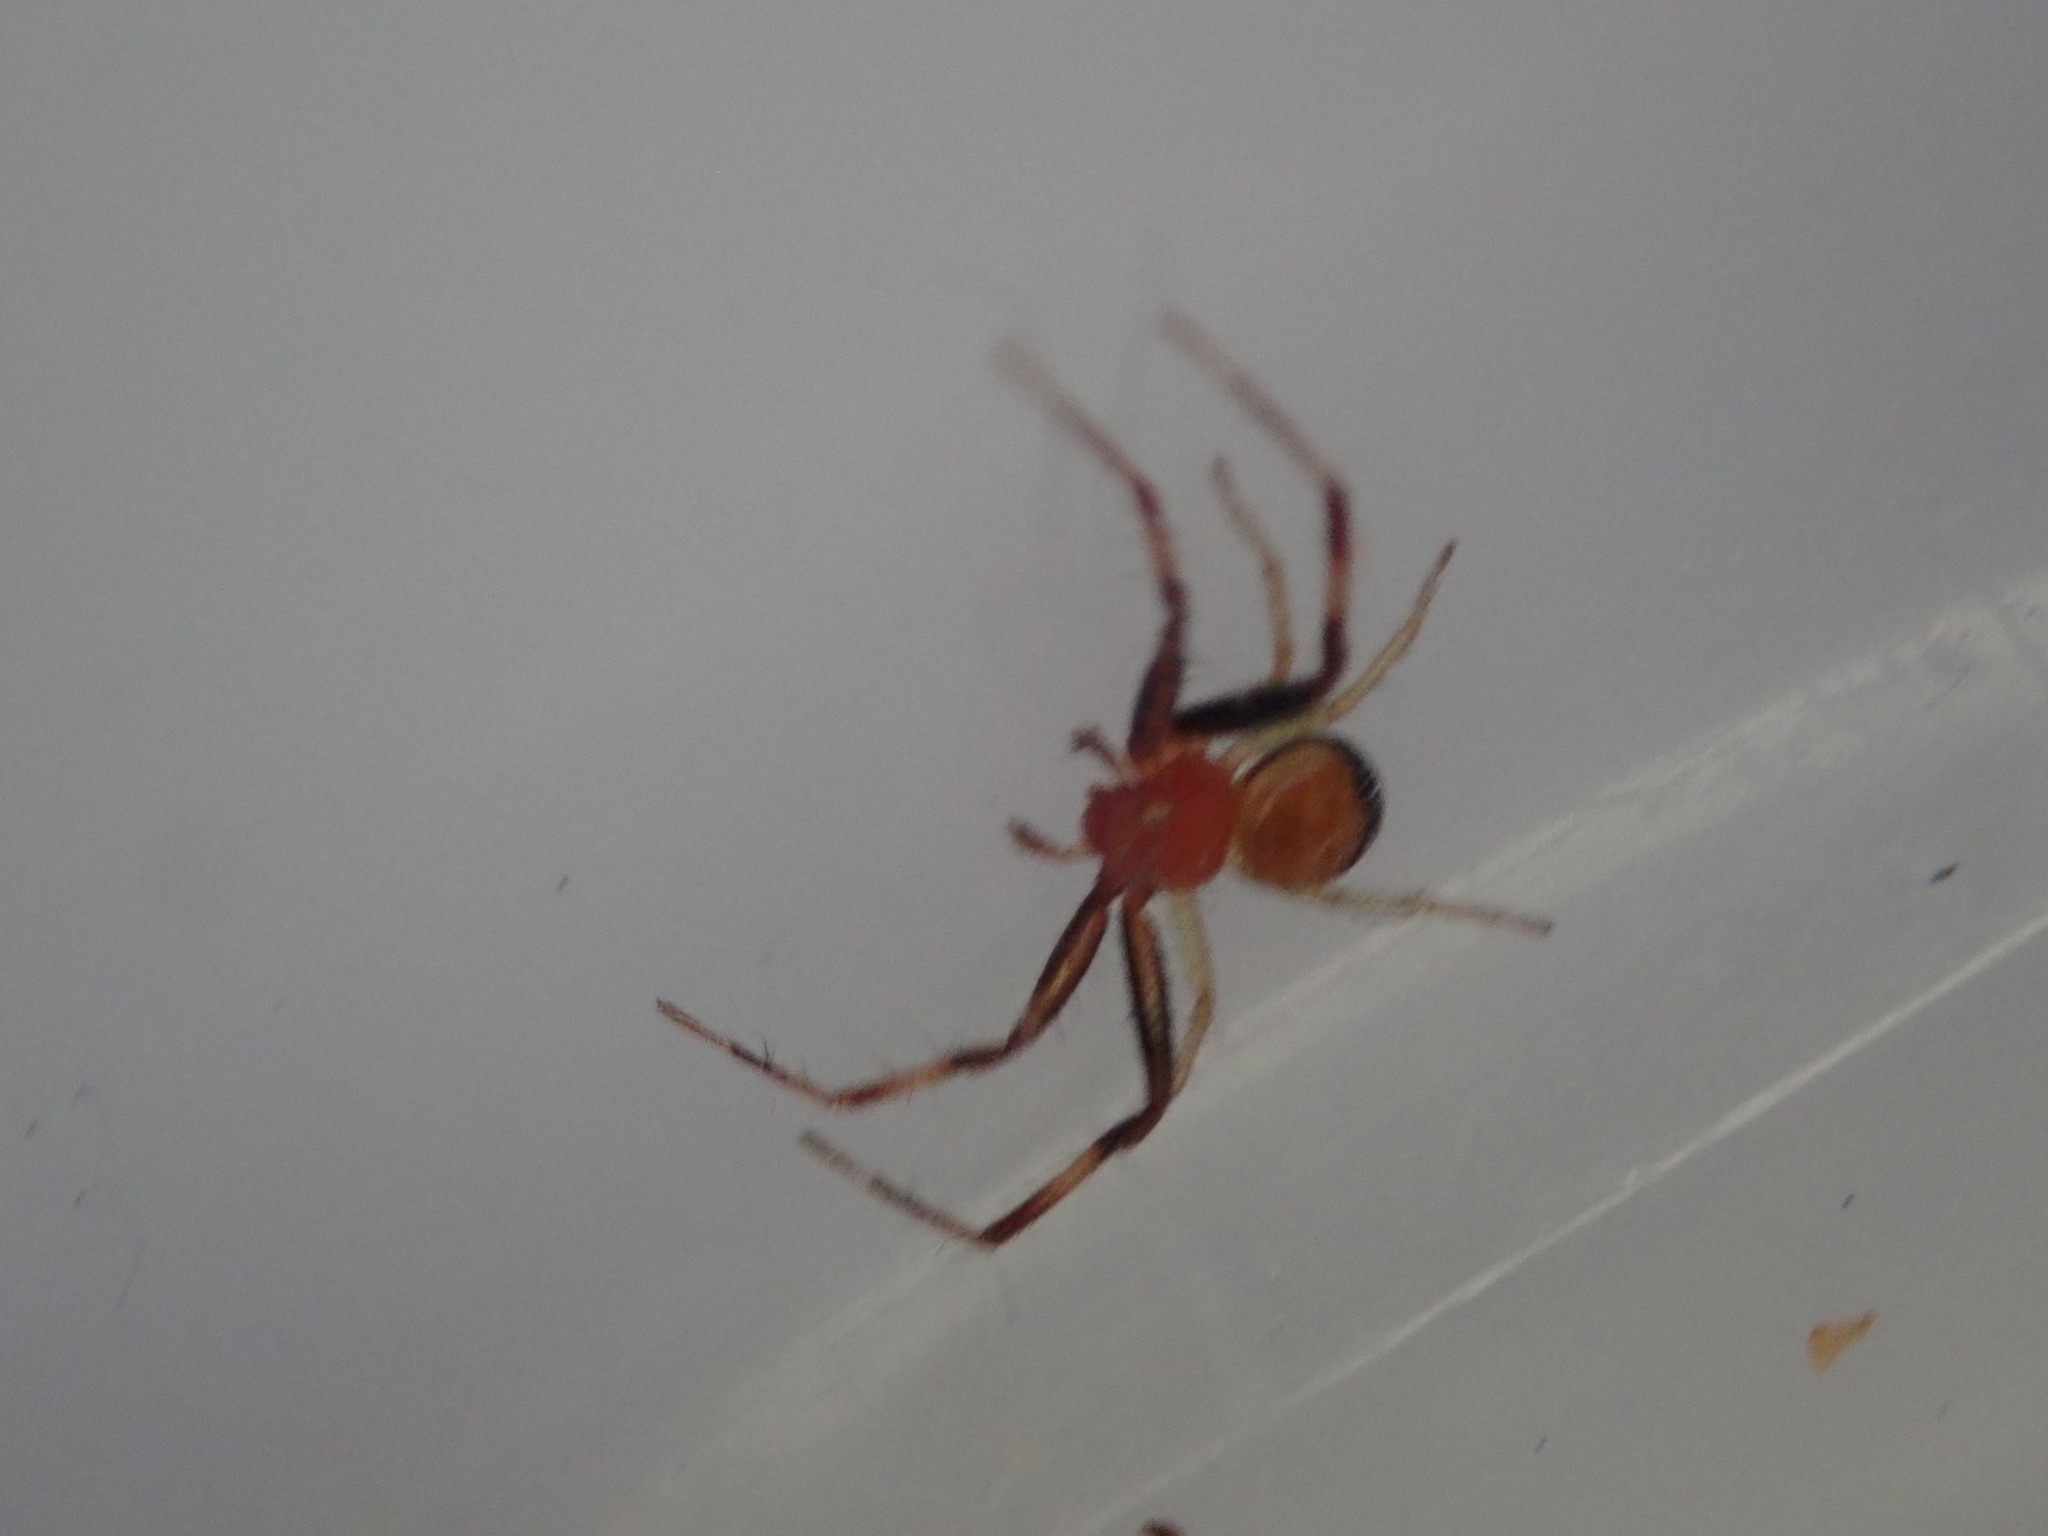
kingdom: Animalia
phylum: Arthropoda
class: Arachnida
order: Araneae
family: Thomisidae
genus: Synema
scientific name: Synema parvulum
